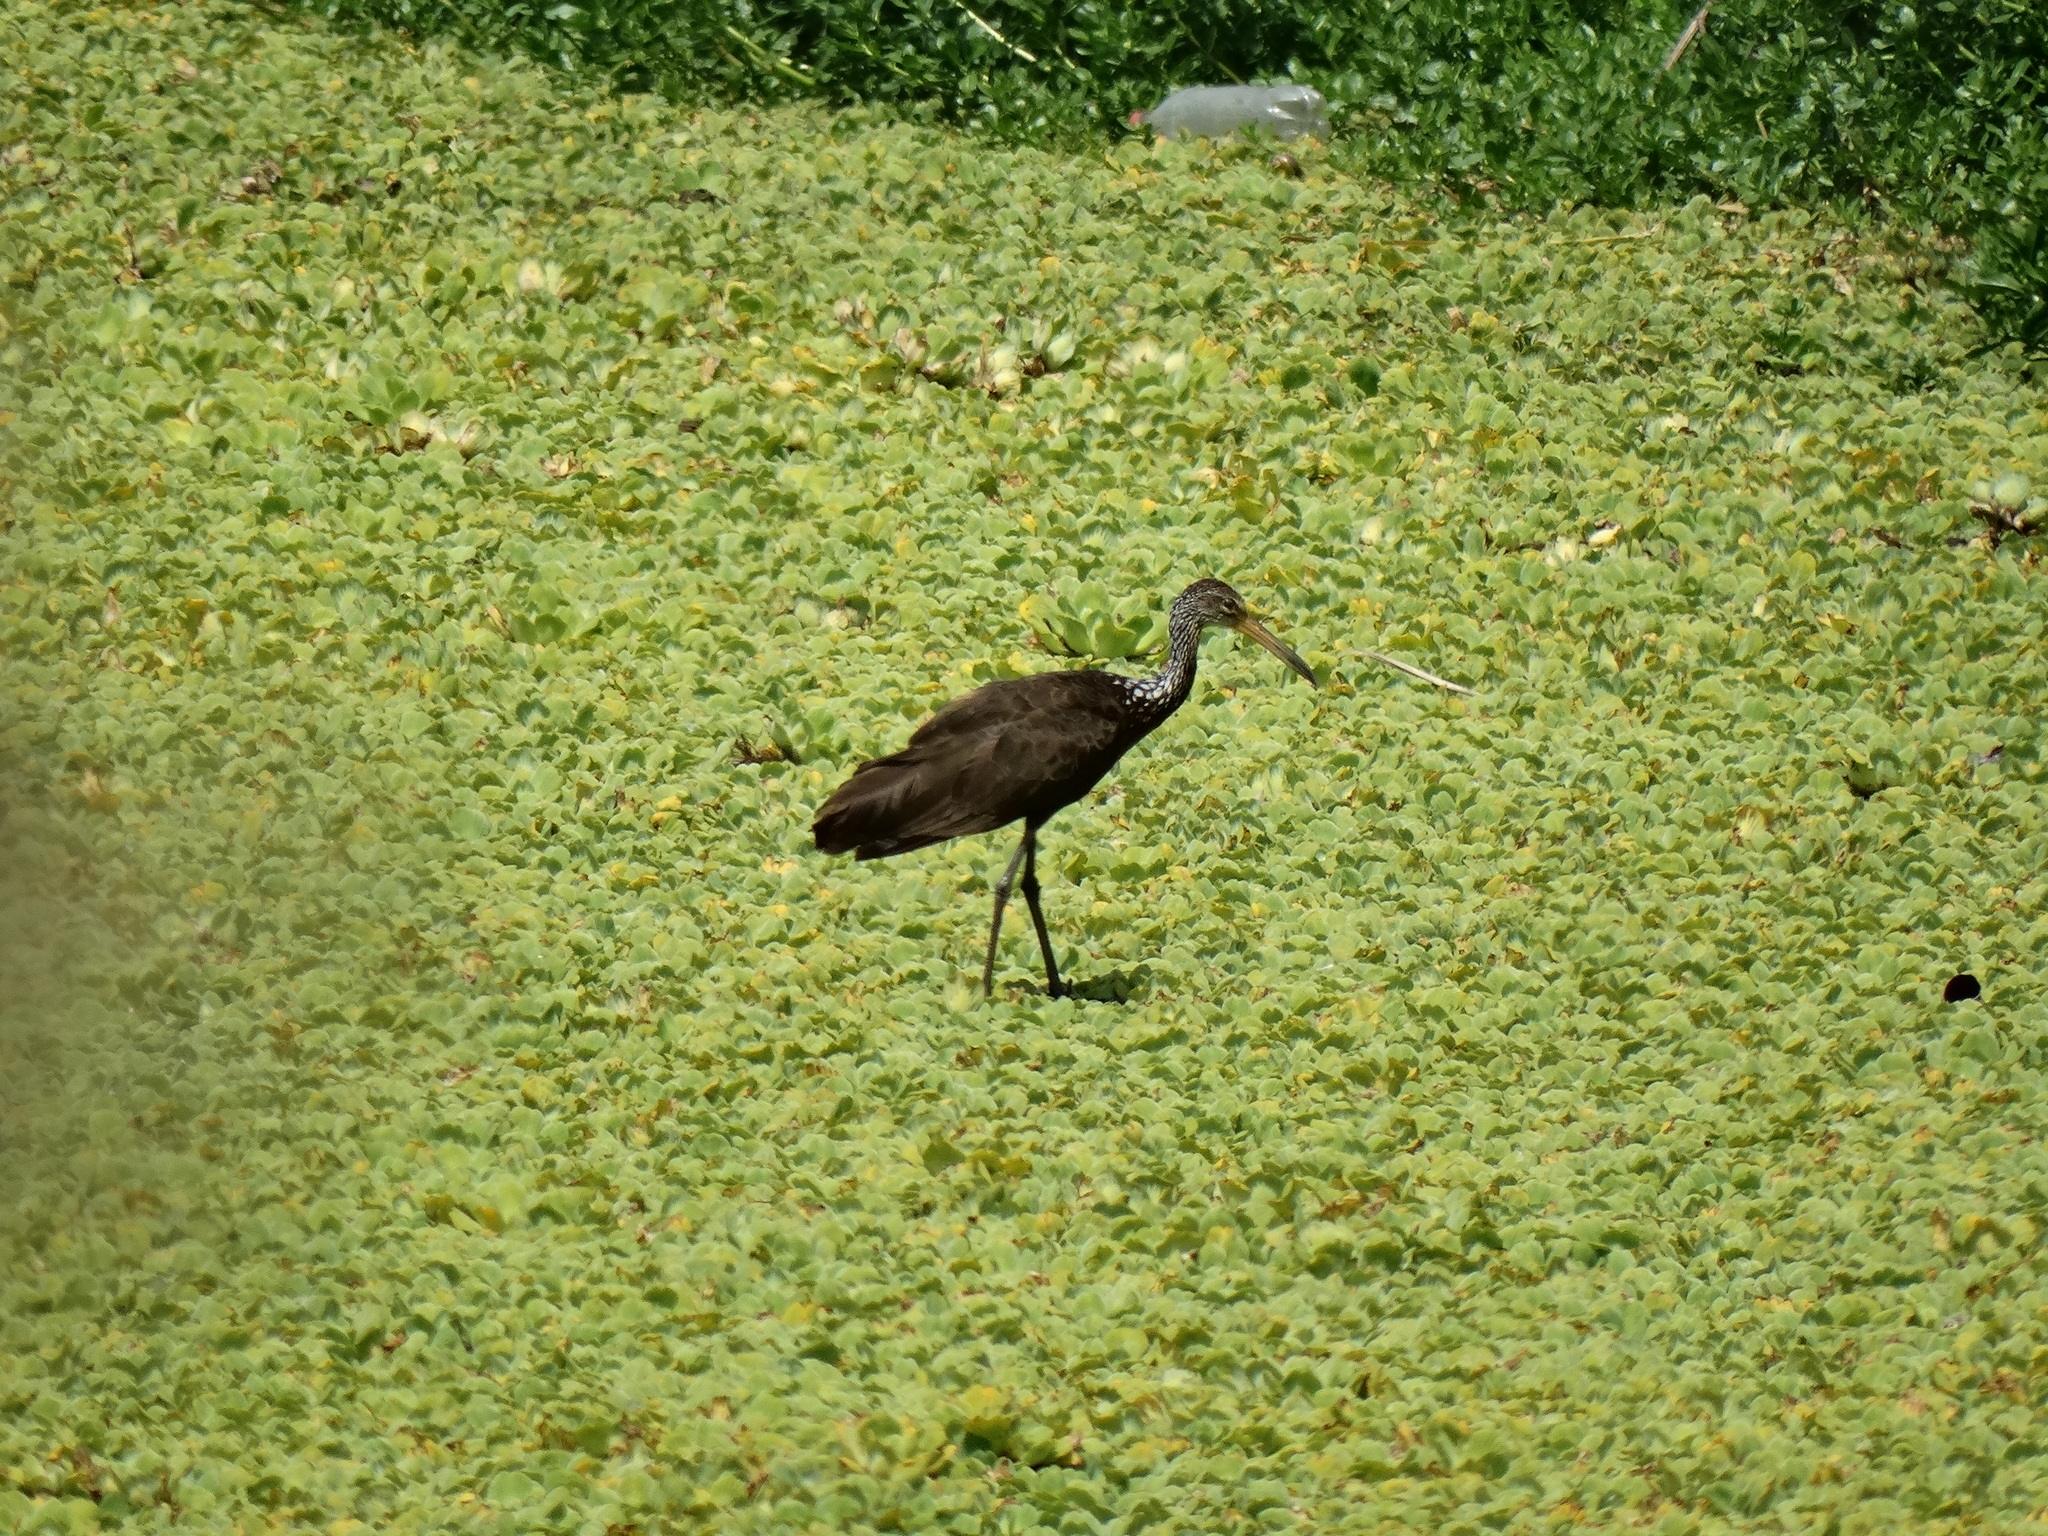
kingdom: Animalia
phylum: Chordata
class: Aves
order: Gruiformes
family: Aramidae
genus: Aramus
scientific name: Aramus guarauna
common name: Limpkin
